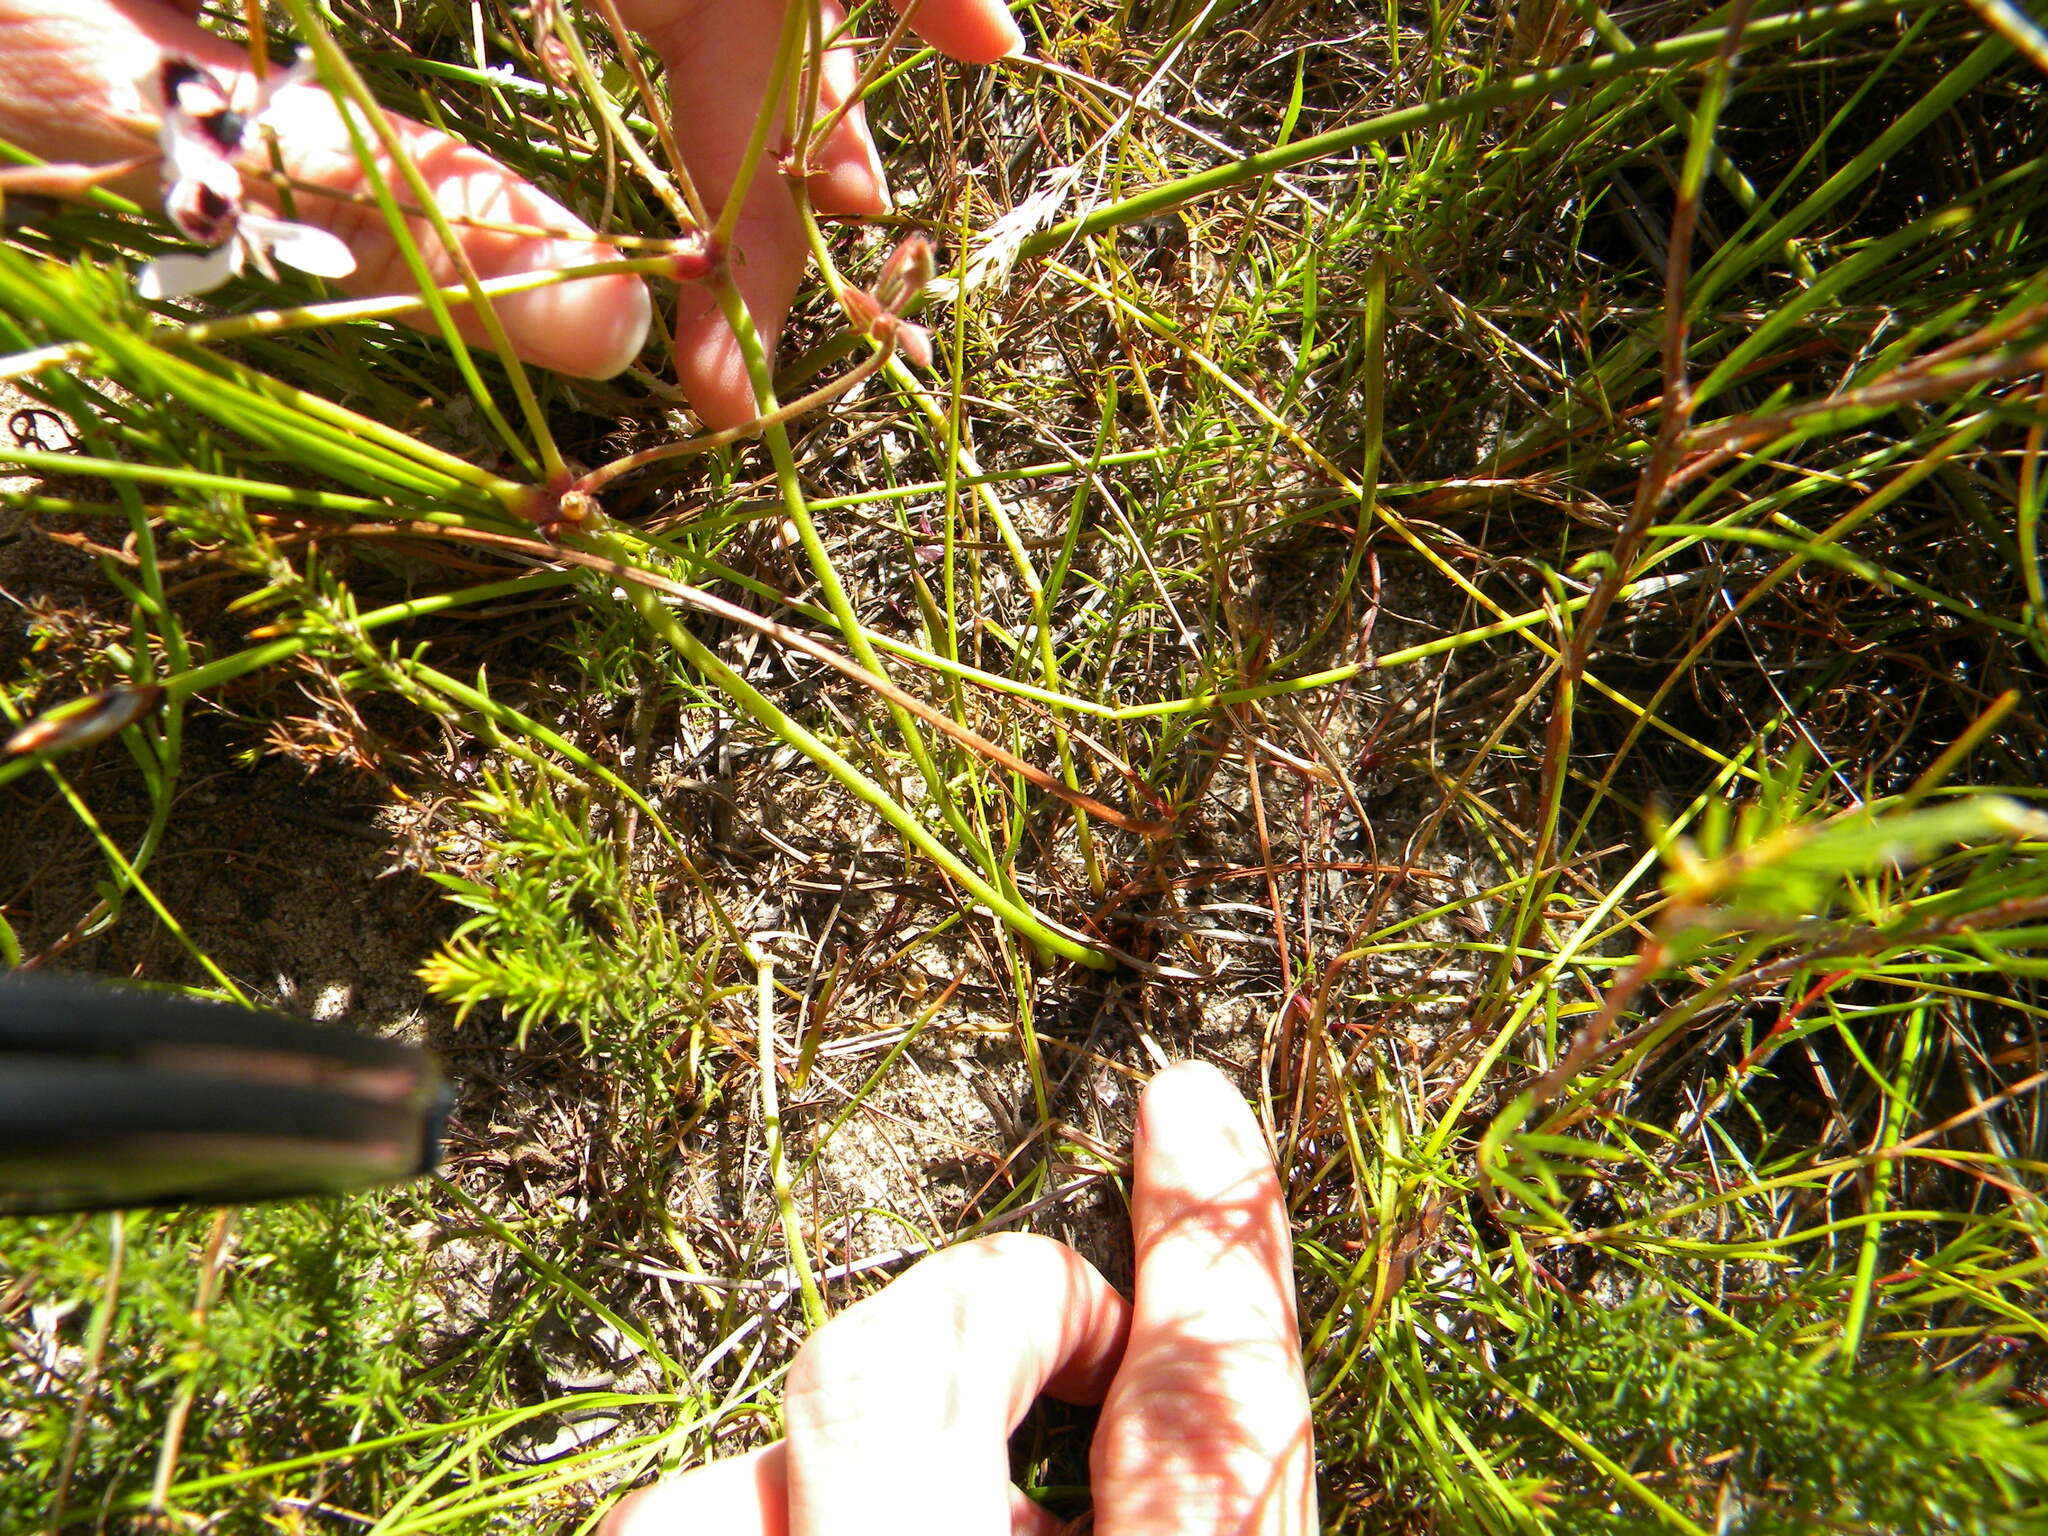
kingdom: Plantae
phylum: Tracheophyta
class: Magnoliopsida
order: Geraniales
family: Geraniaceae
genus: Pelargonium
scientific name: Pelargonium psammophilum
